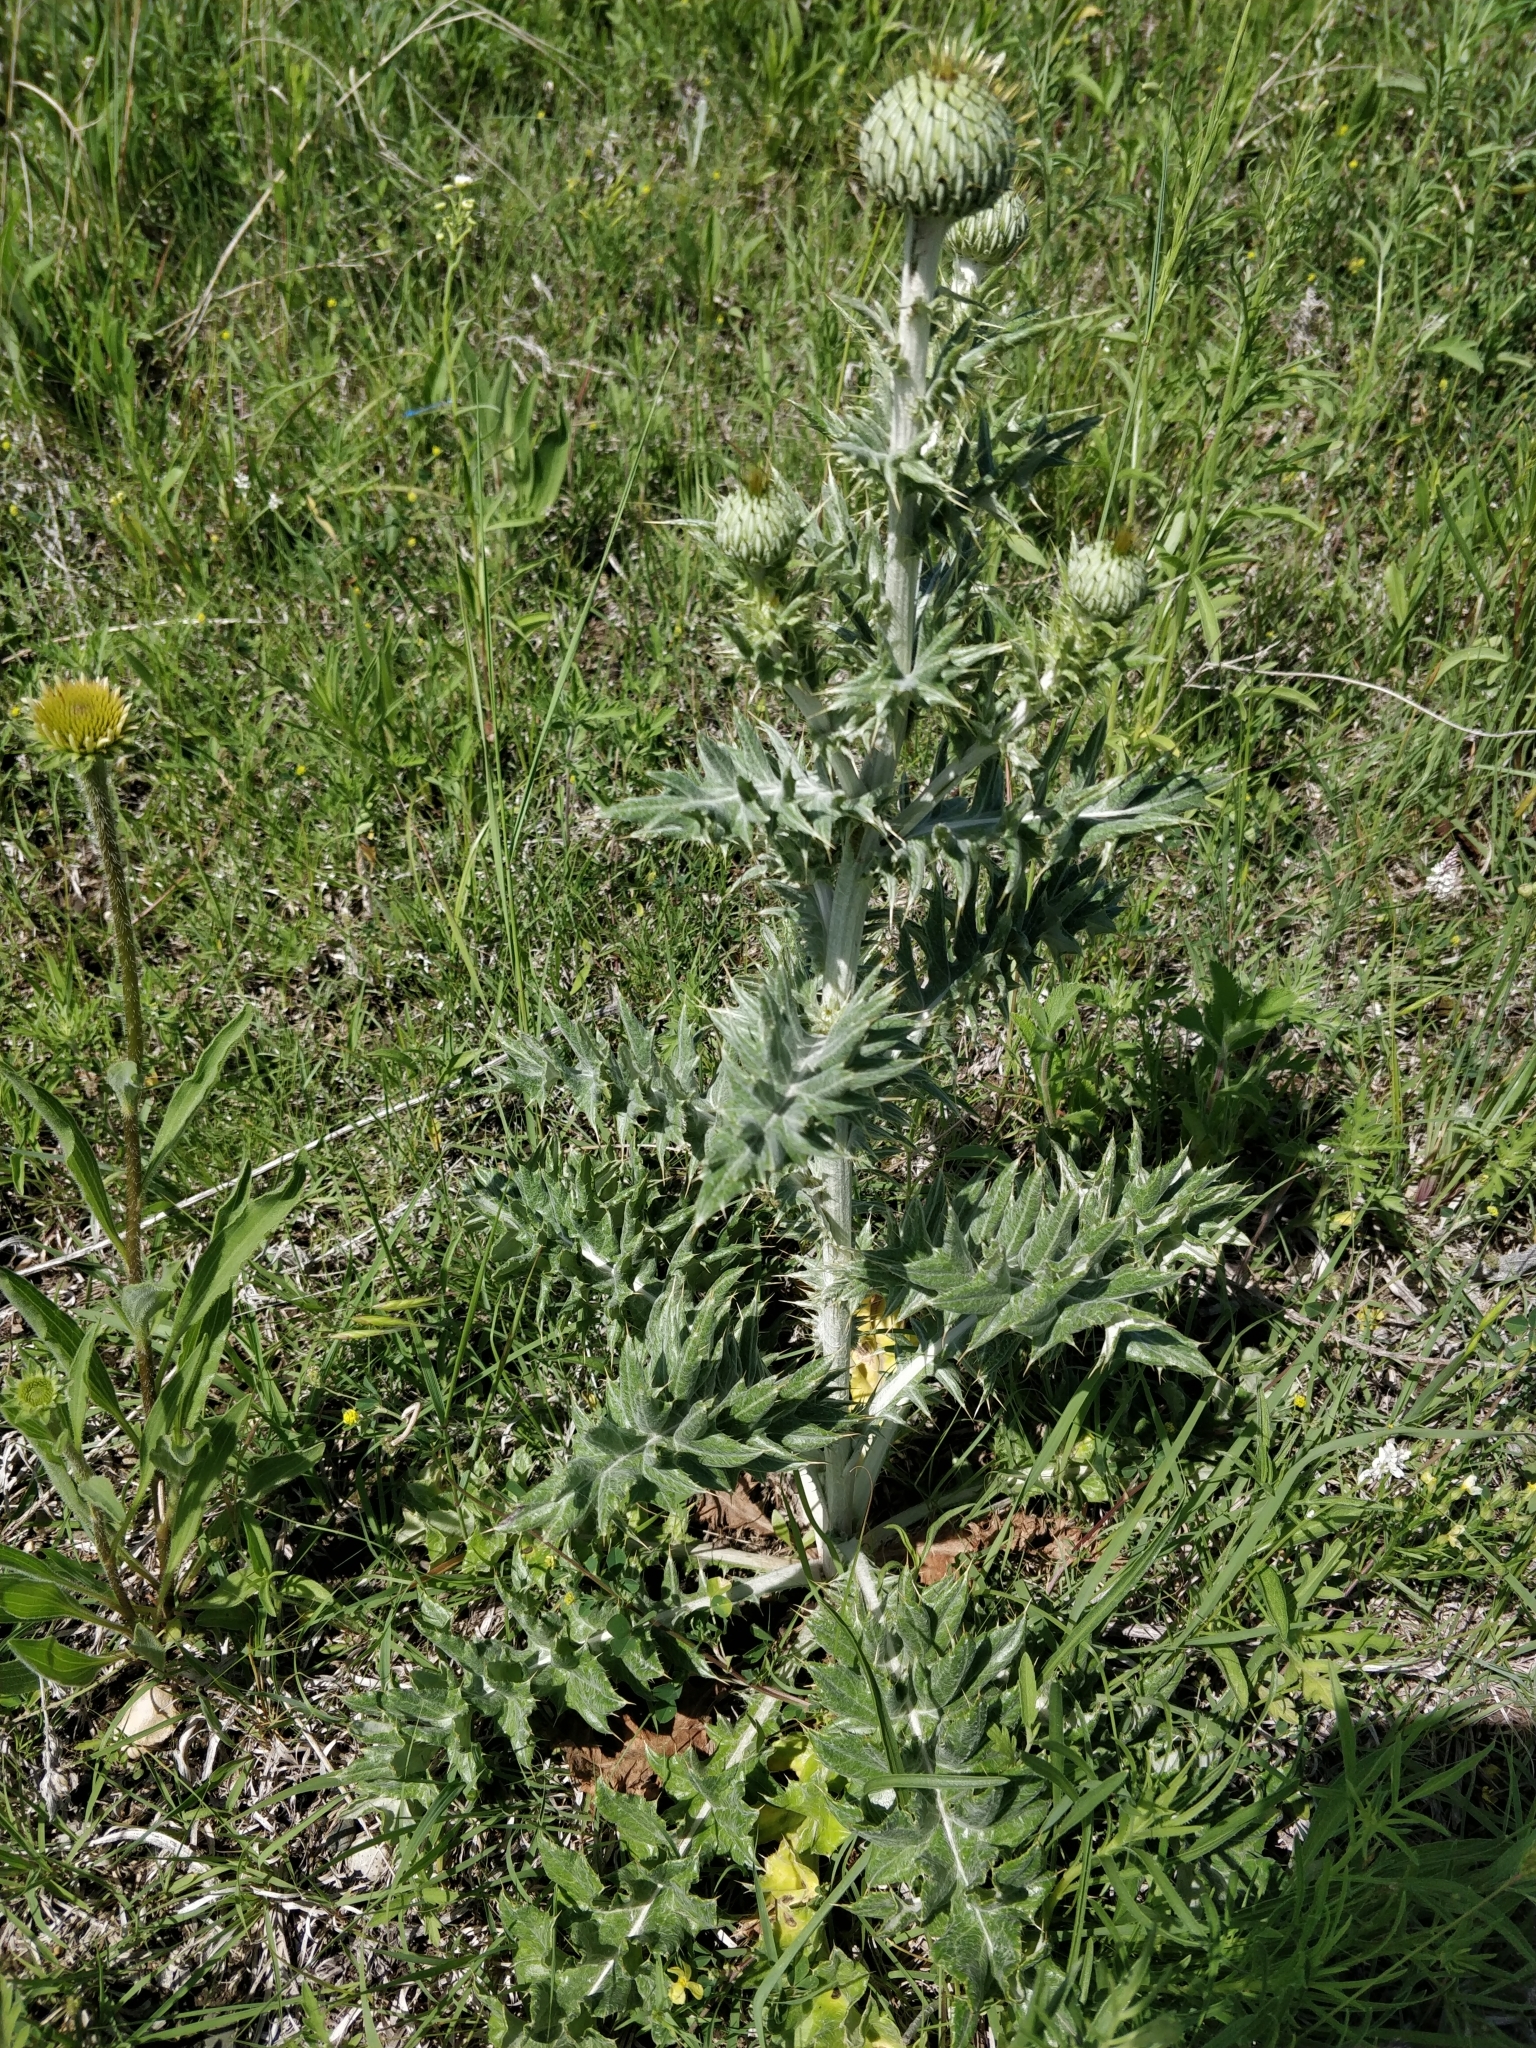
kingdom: Plantae
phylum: Tracheophyta
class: Magnoliopsida
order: Asterales
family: Asteraceae
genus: Cirsium
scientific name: Cirsium undulatum
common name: Pasture thistle
